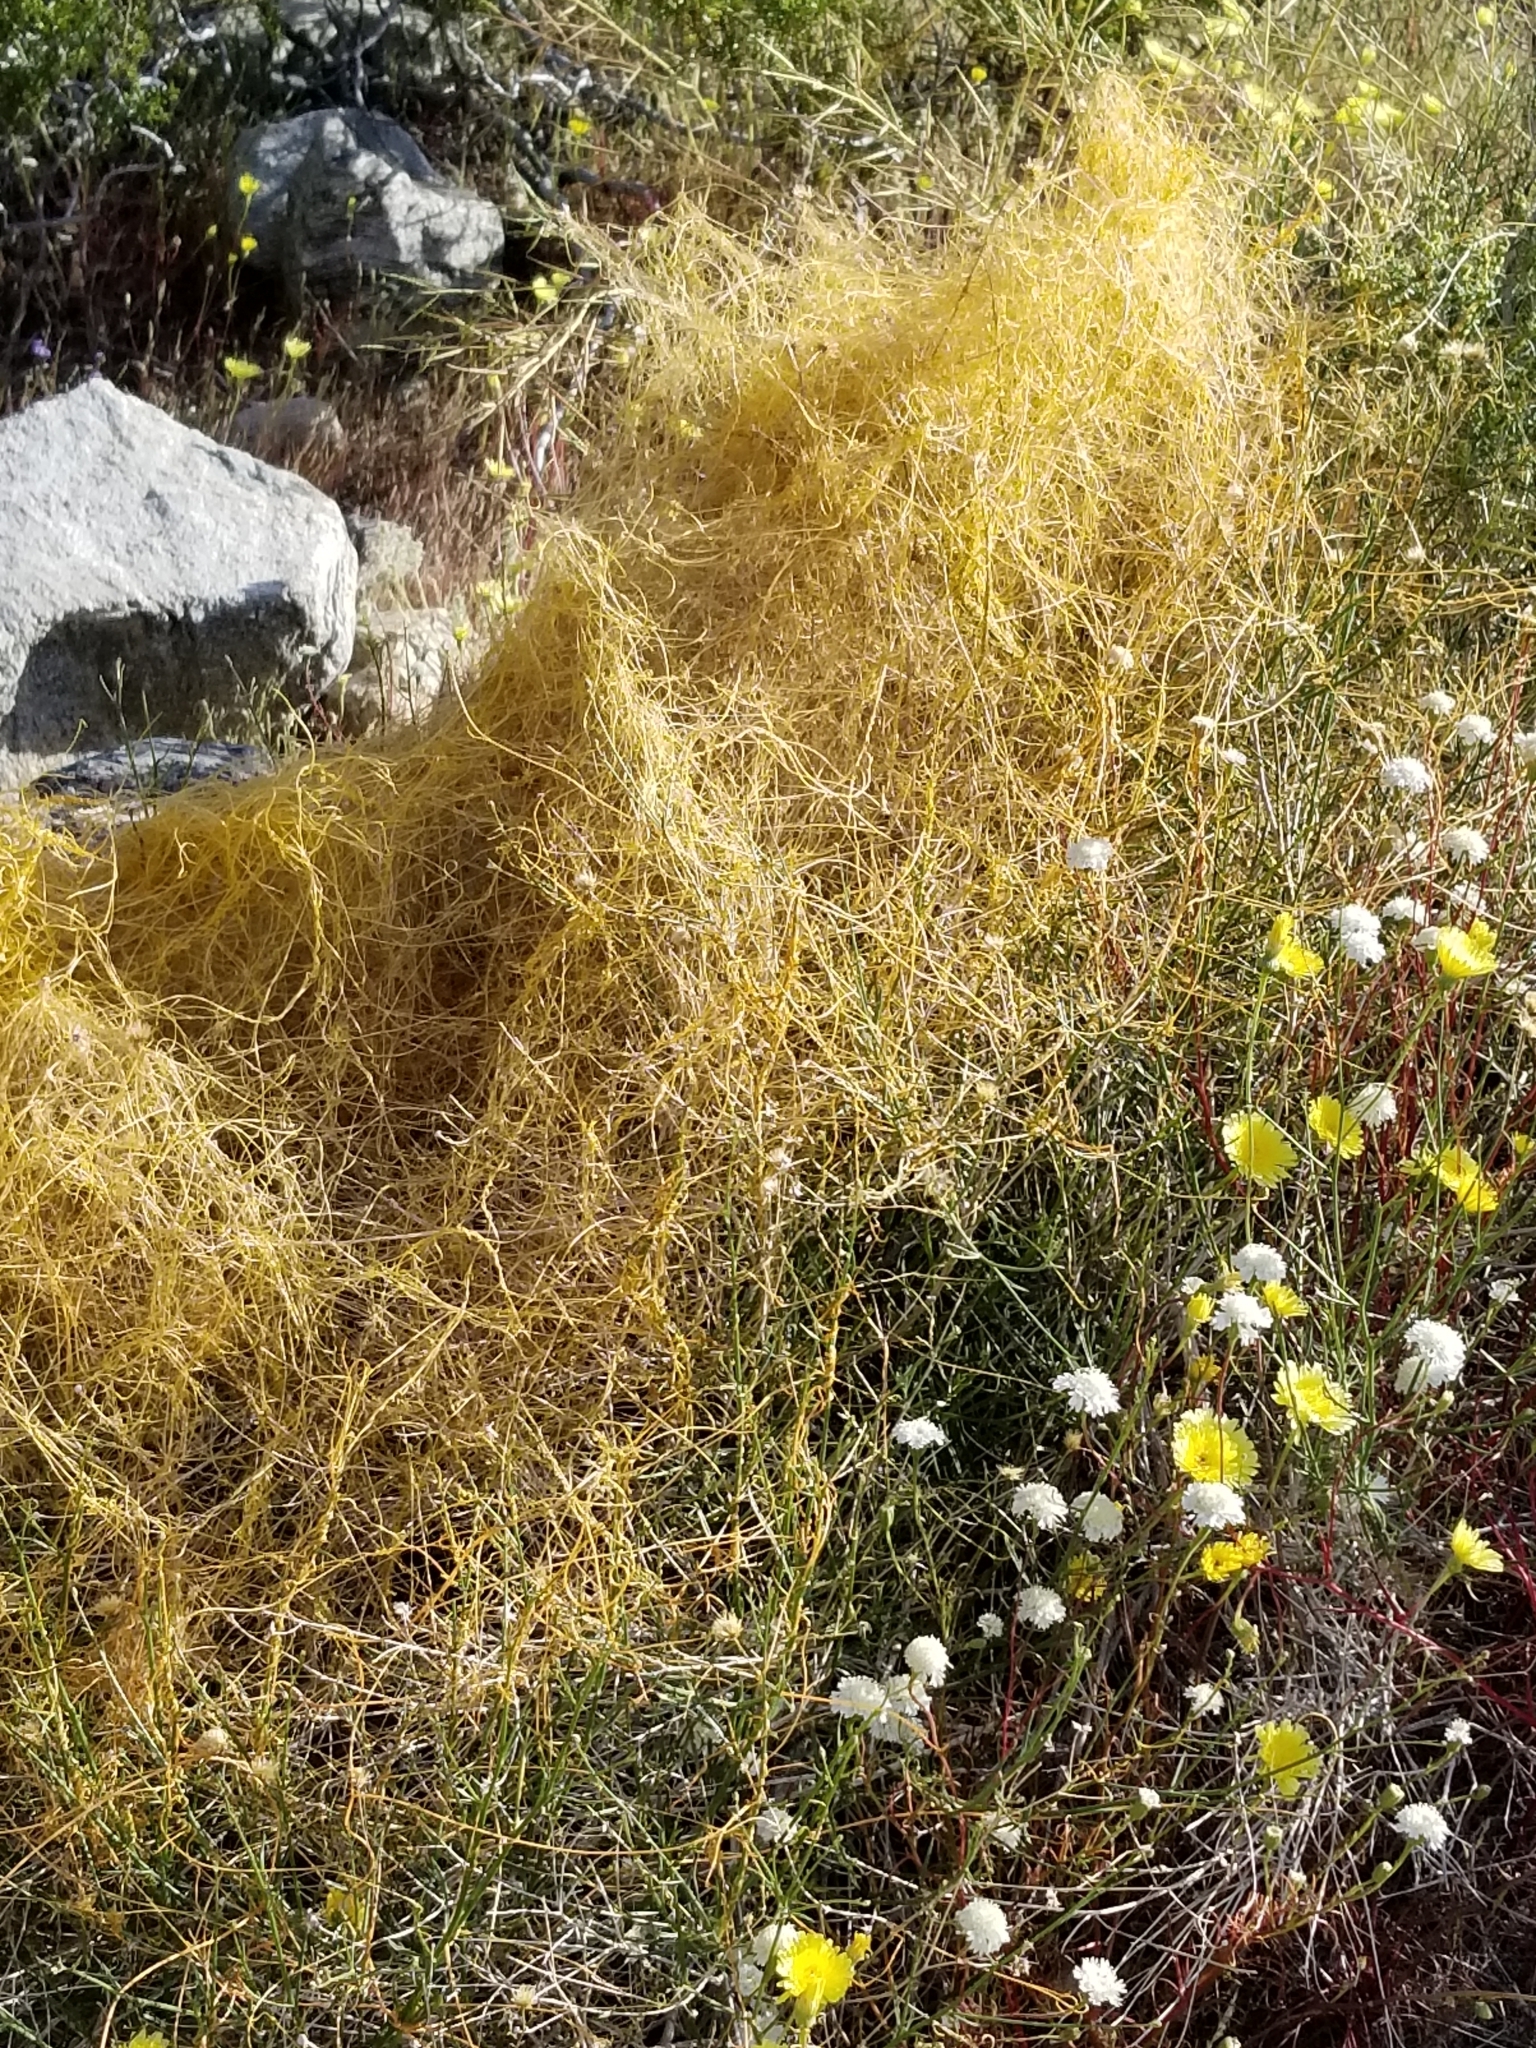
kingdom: Plantae
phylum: Tracheophyta
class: Magnoliopsida
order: Solanales
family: Convolvulaceae
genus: Cuscuta
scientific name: Cuscuta californica
